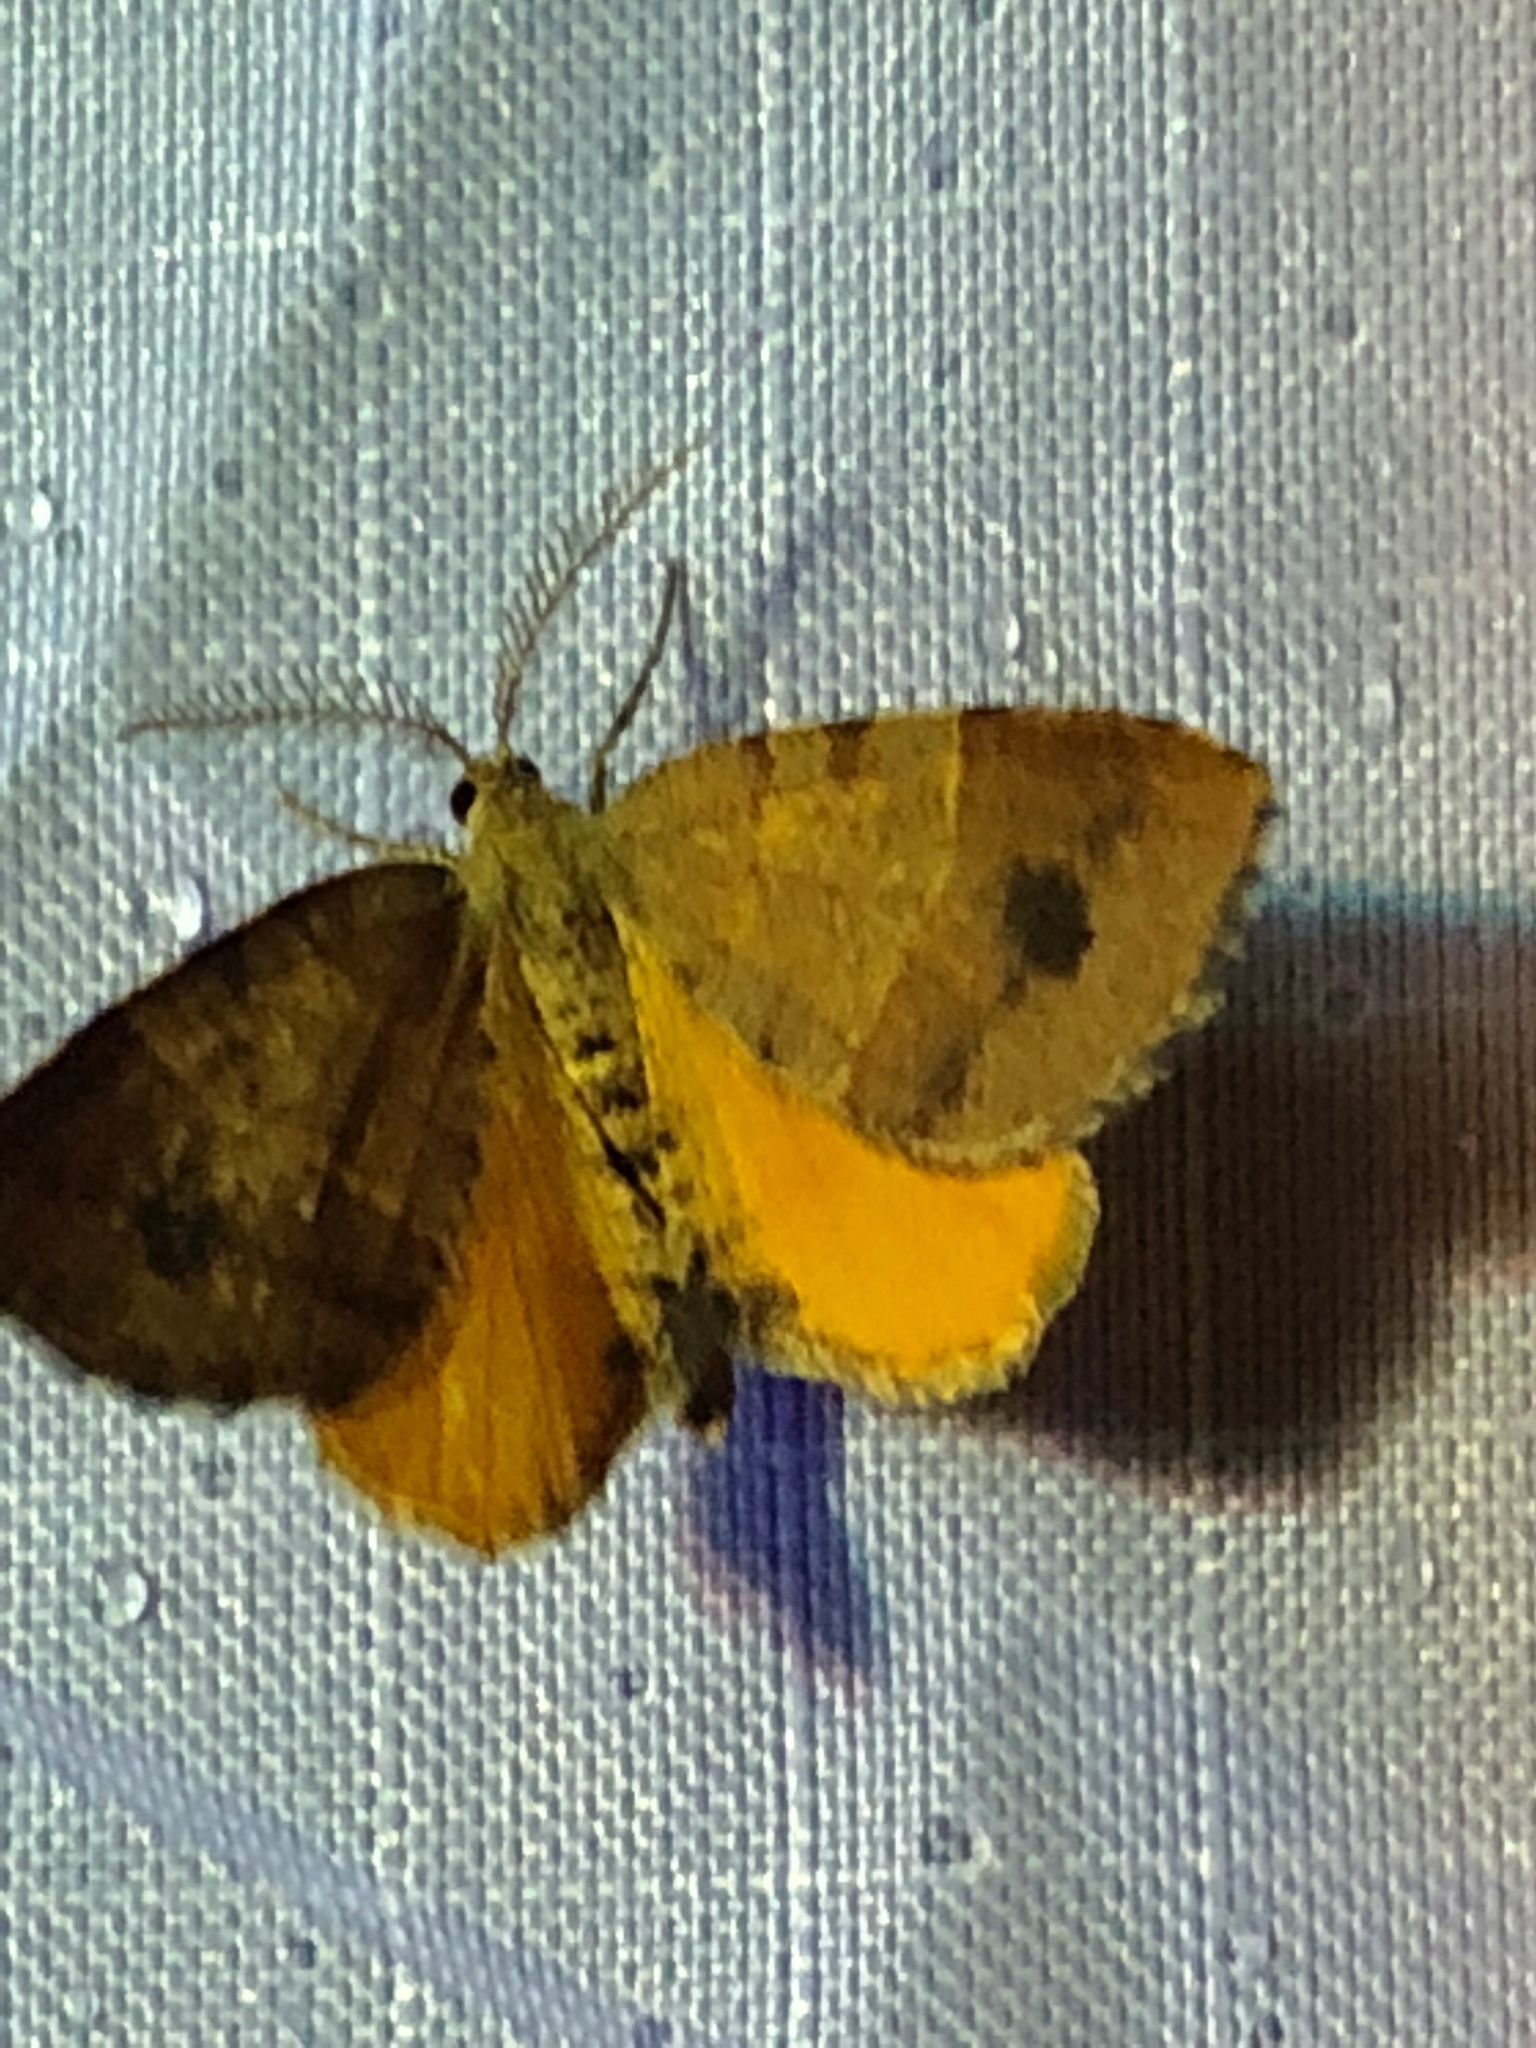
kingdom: Animalia
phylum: Arthropoda
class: Insecta
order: Lepidoptera
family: Geometridae
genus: Mellilla
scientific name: Mellilla xanthometata
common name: Orange wing moth
